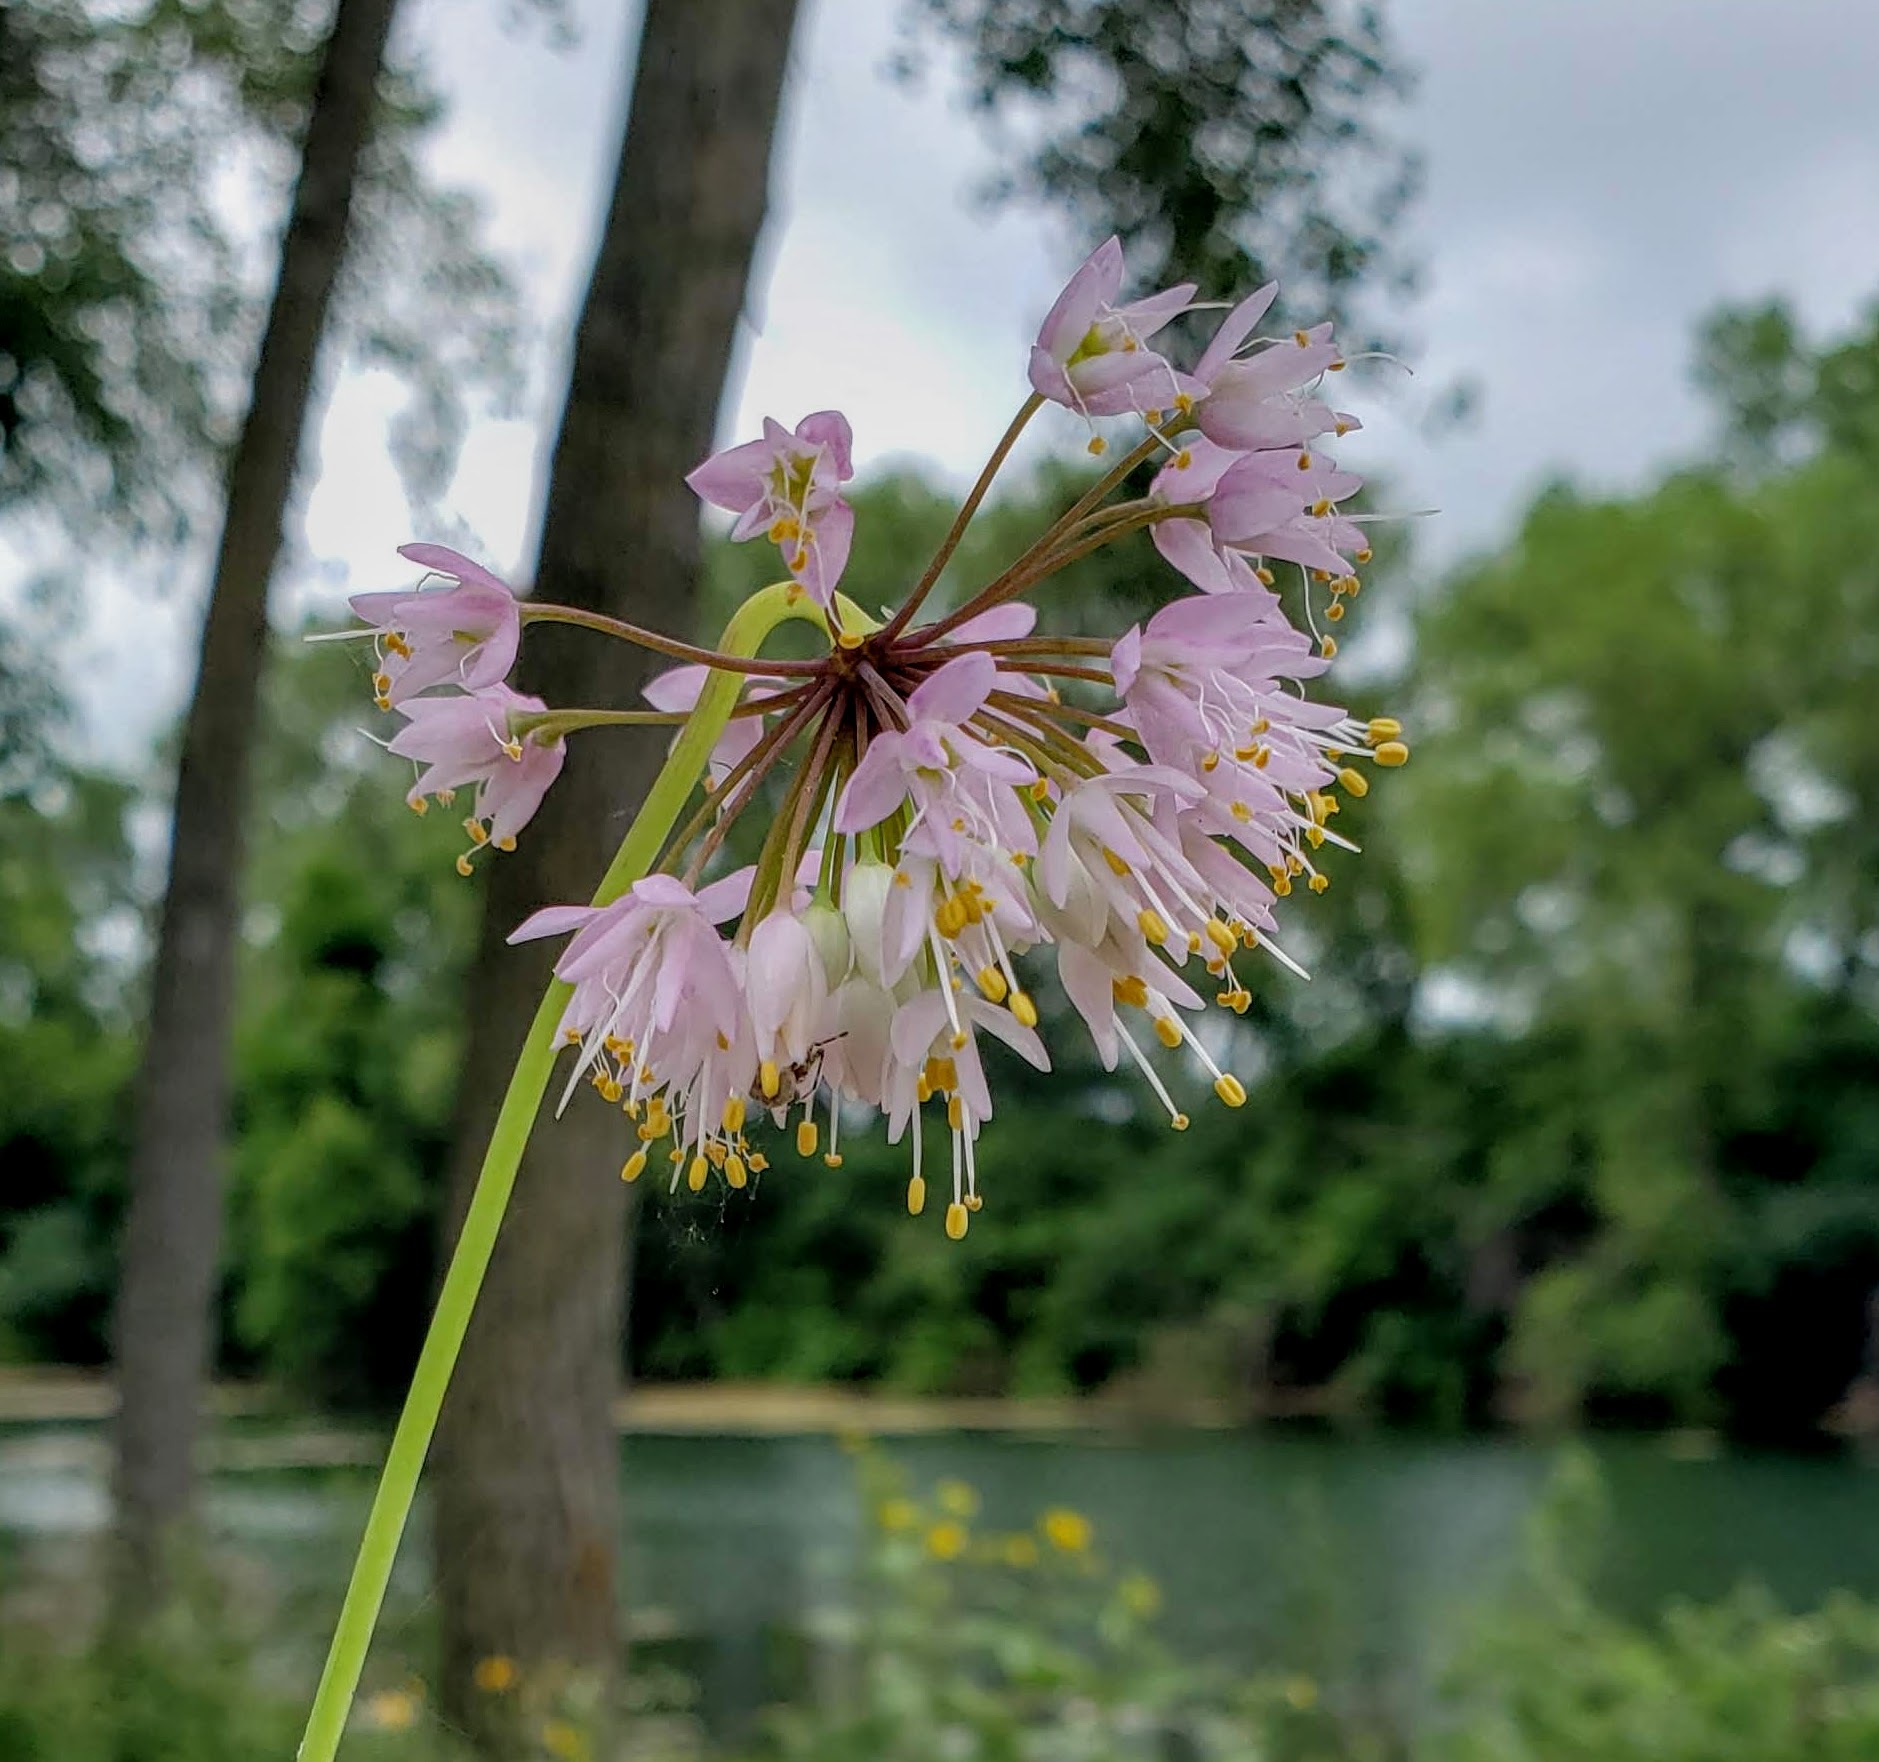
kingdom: Plantae
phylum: Tracheophyta
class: Liliopsida
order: Asparagales
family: Amaryllidaceae
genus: Allium
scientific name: Allium cernuum
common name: Nodding onion
